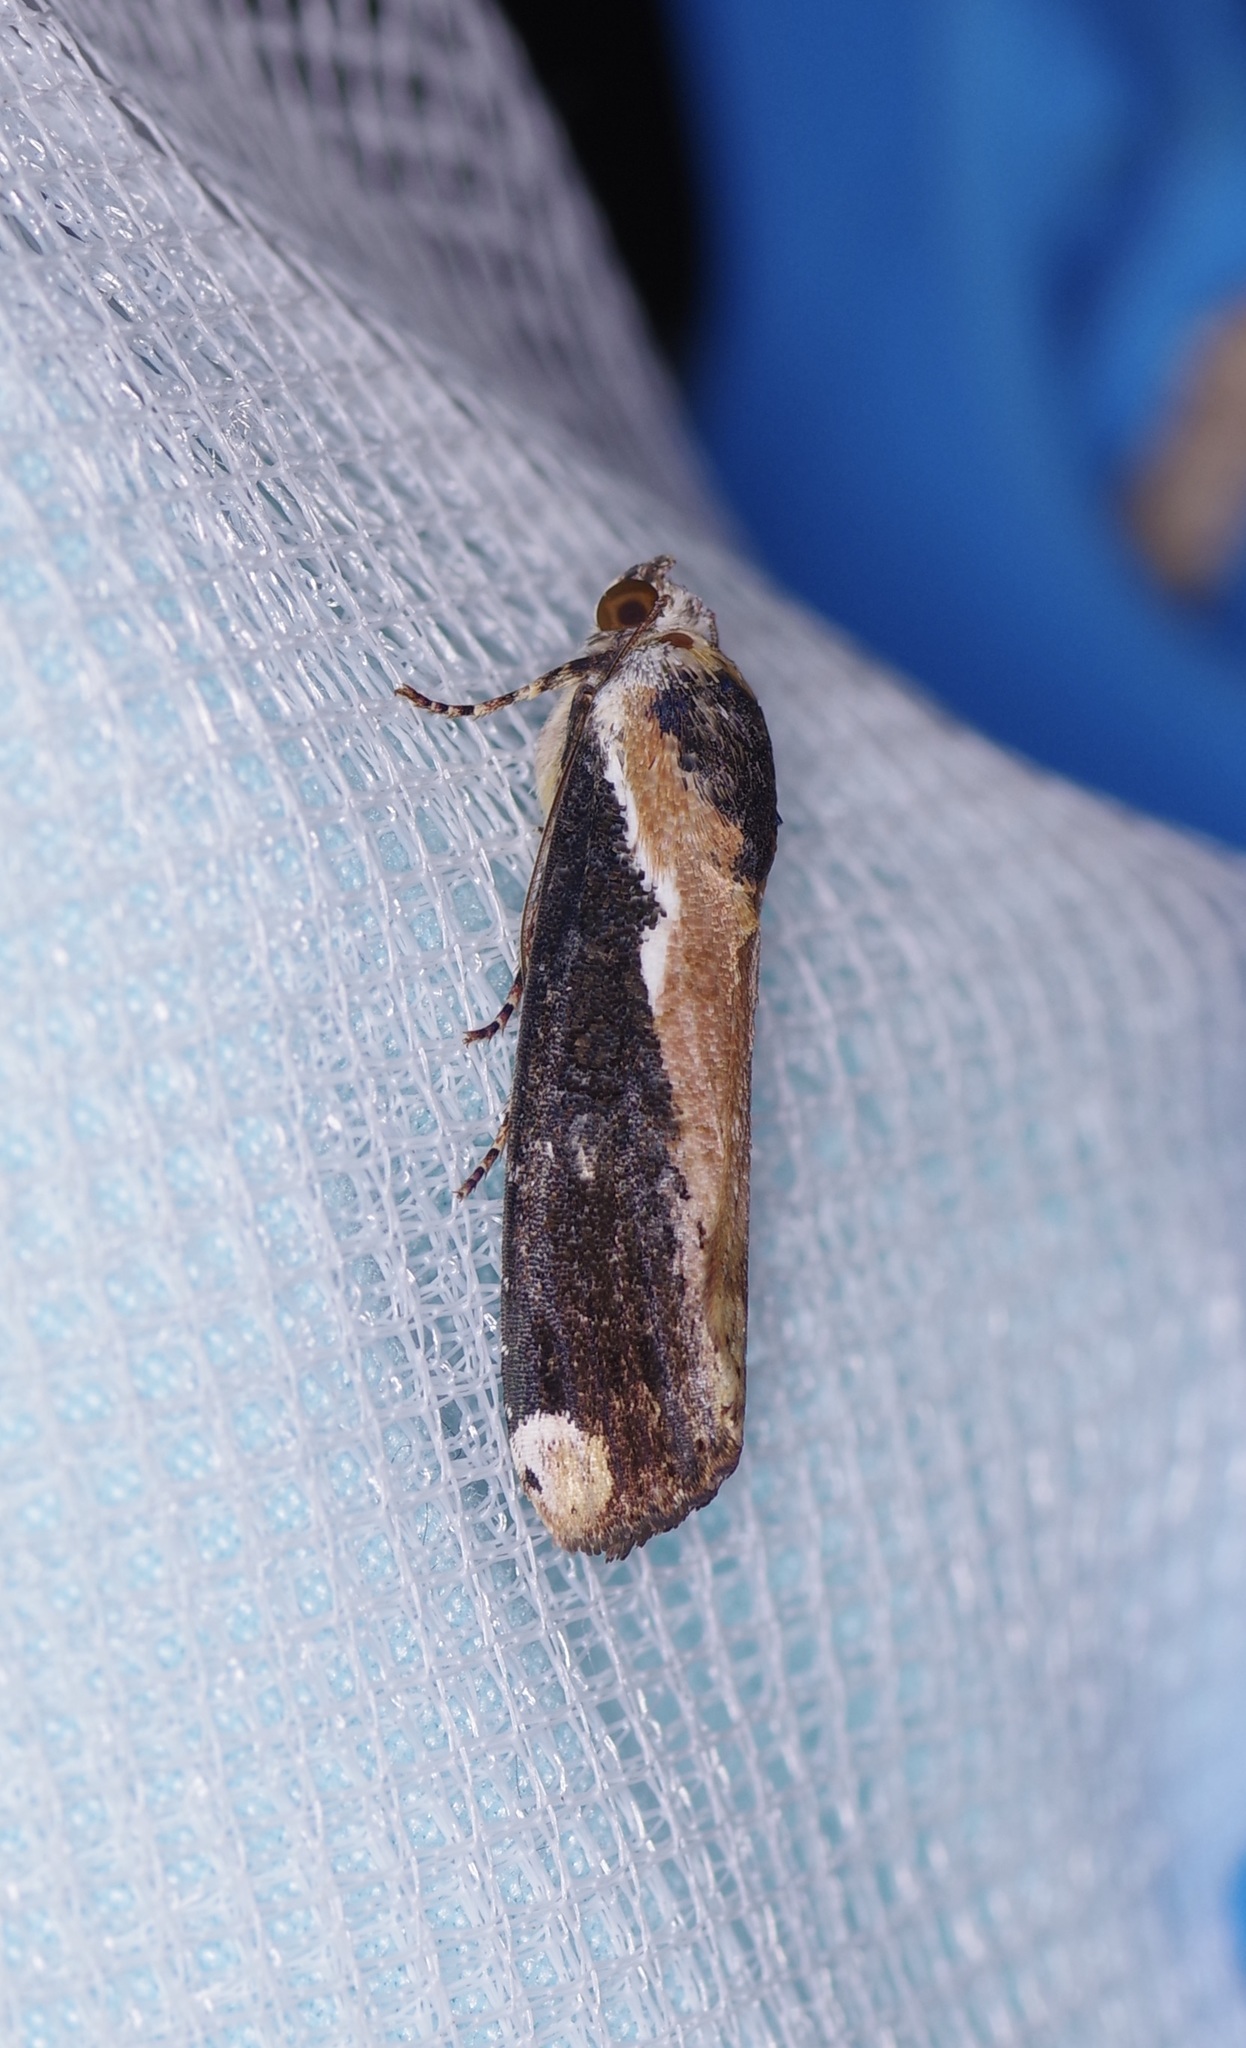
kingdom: Animalia
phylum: Arthropoda
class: Insecta
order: Lepidoptera
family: Noctuidae
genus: Magusa
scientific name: Magusa divaricata
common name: Orb narrow-winged moth
